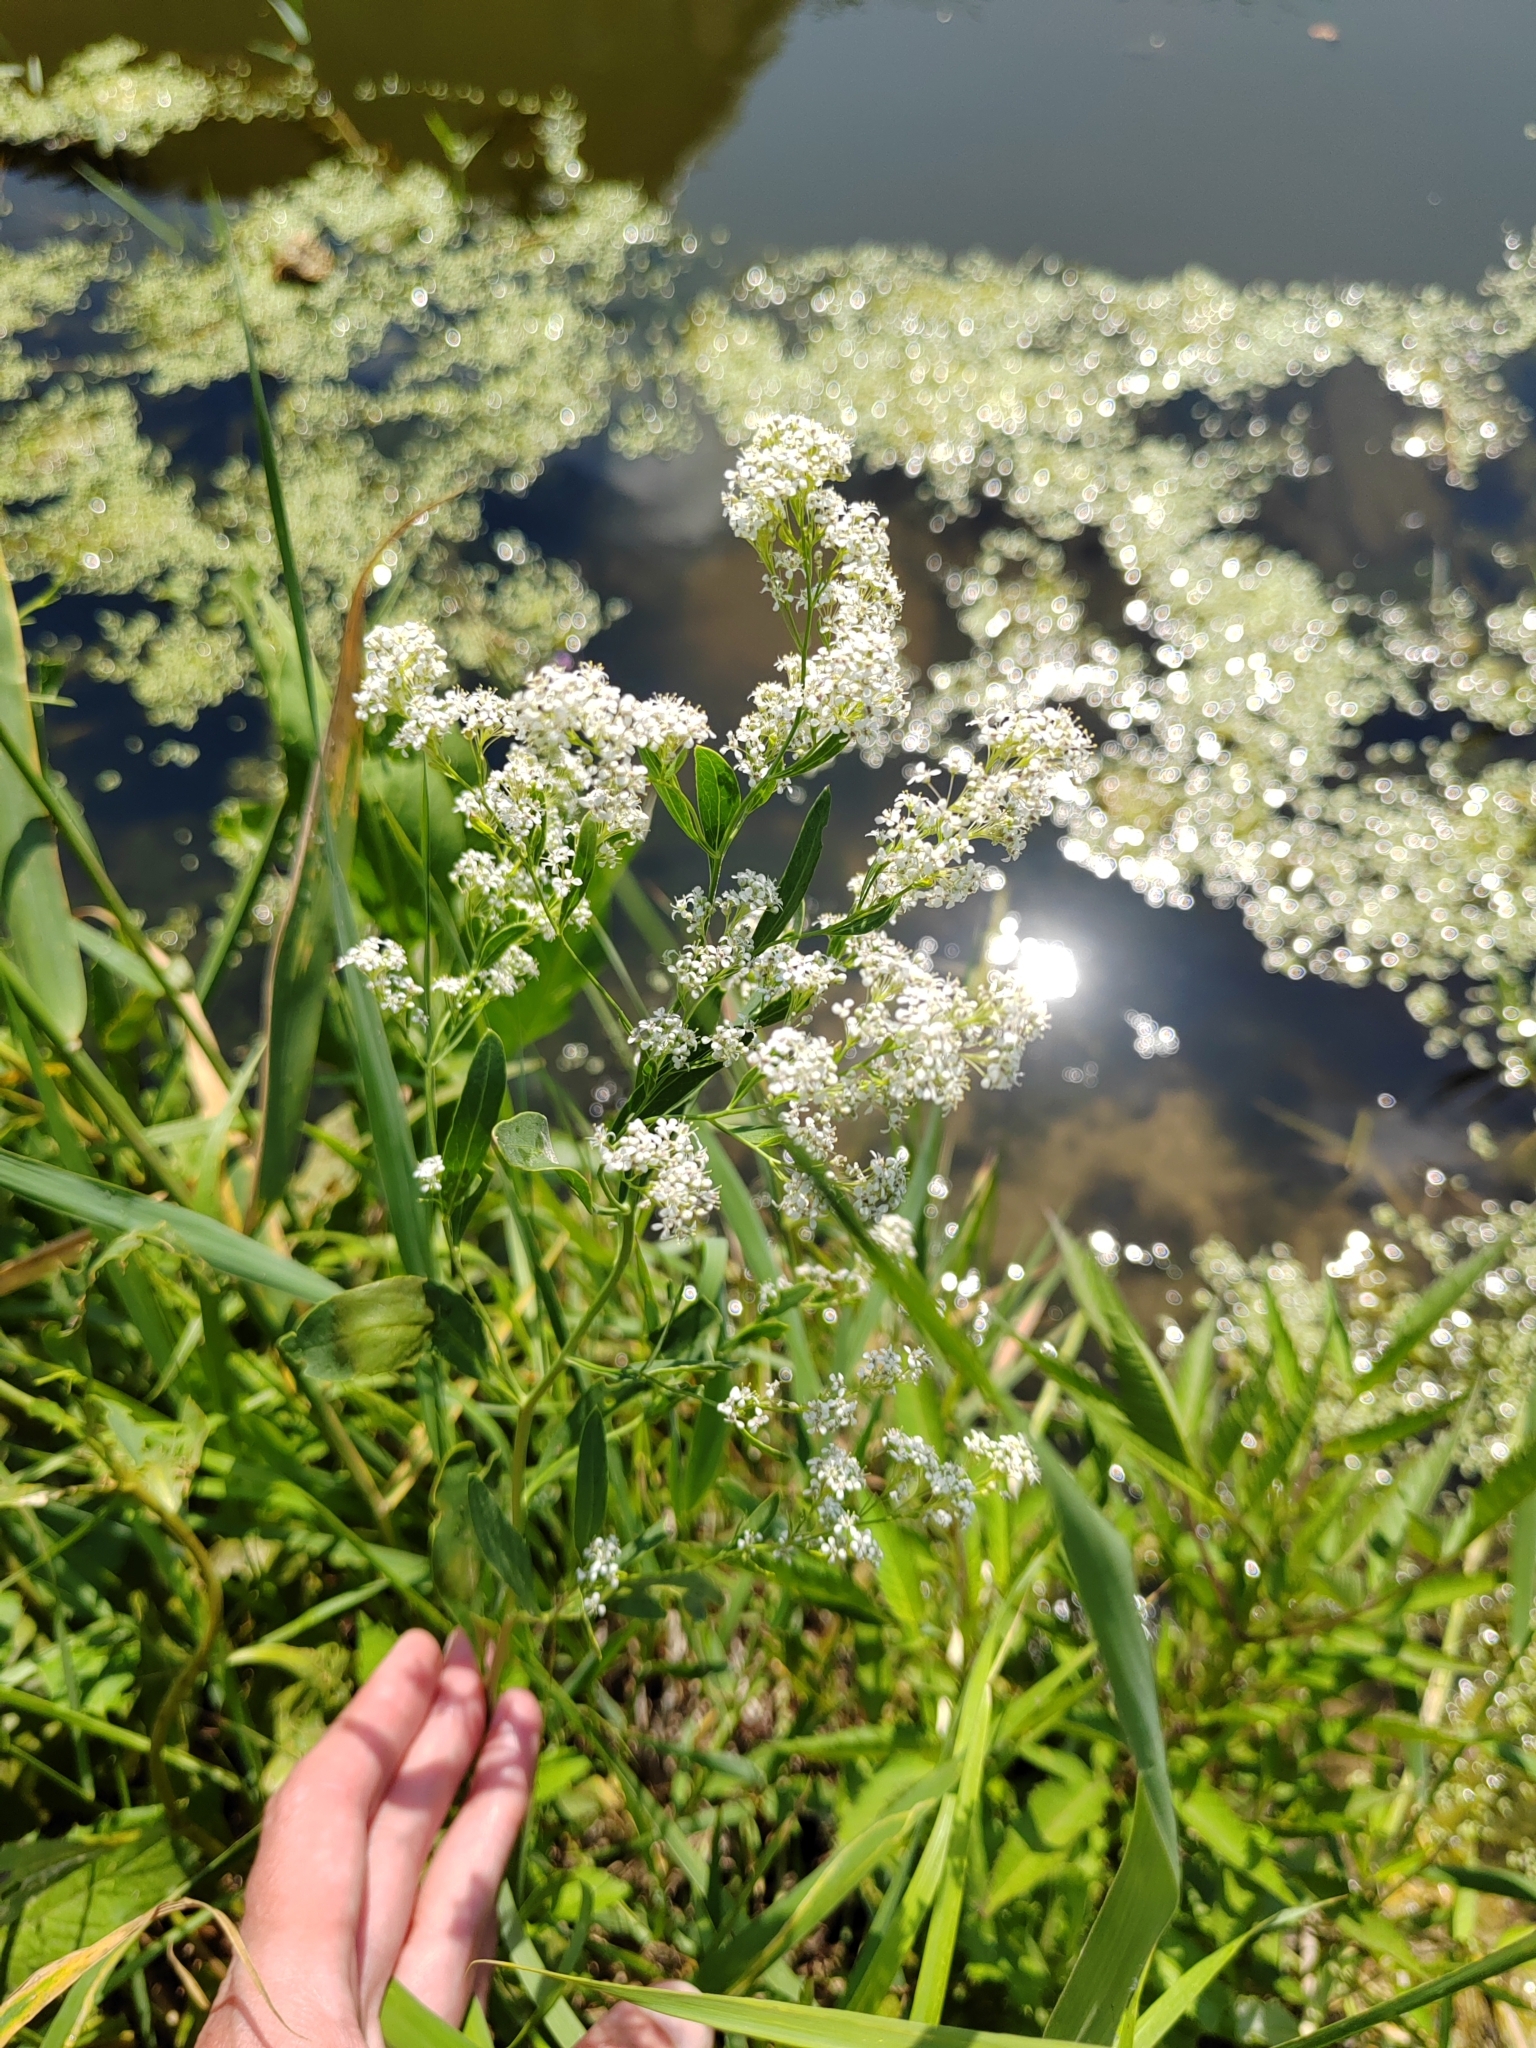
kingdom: Plantae
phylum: Tracheophyta
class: Magnoliopsida
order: Brassicales
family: Brassicaceae
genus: Lepidium
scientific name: Lepidium latifolium
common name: Dittander
